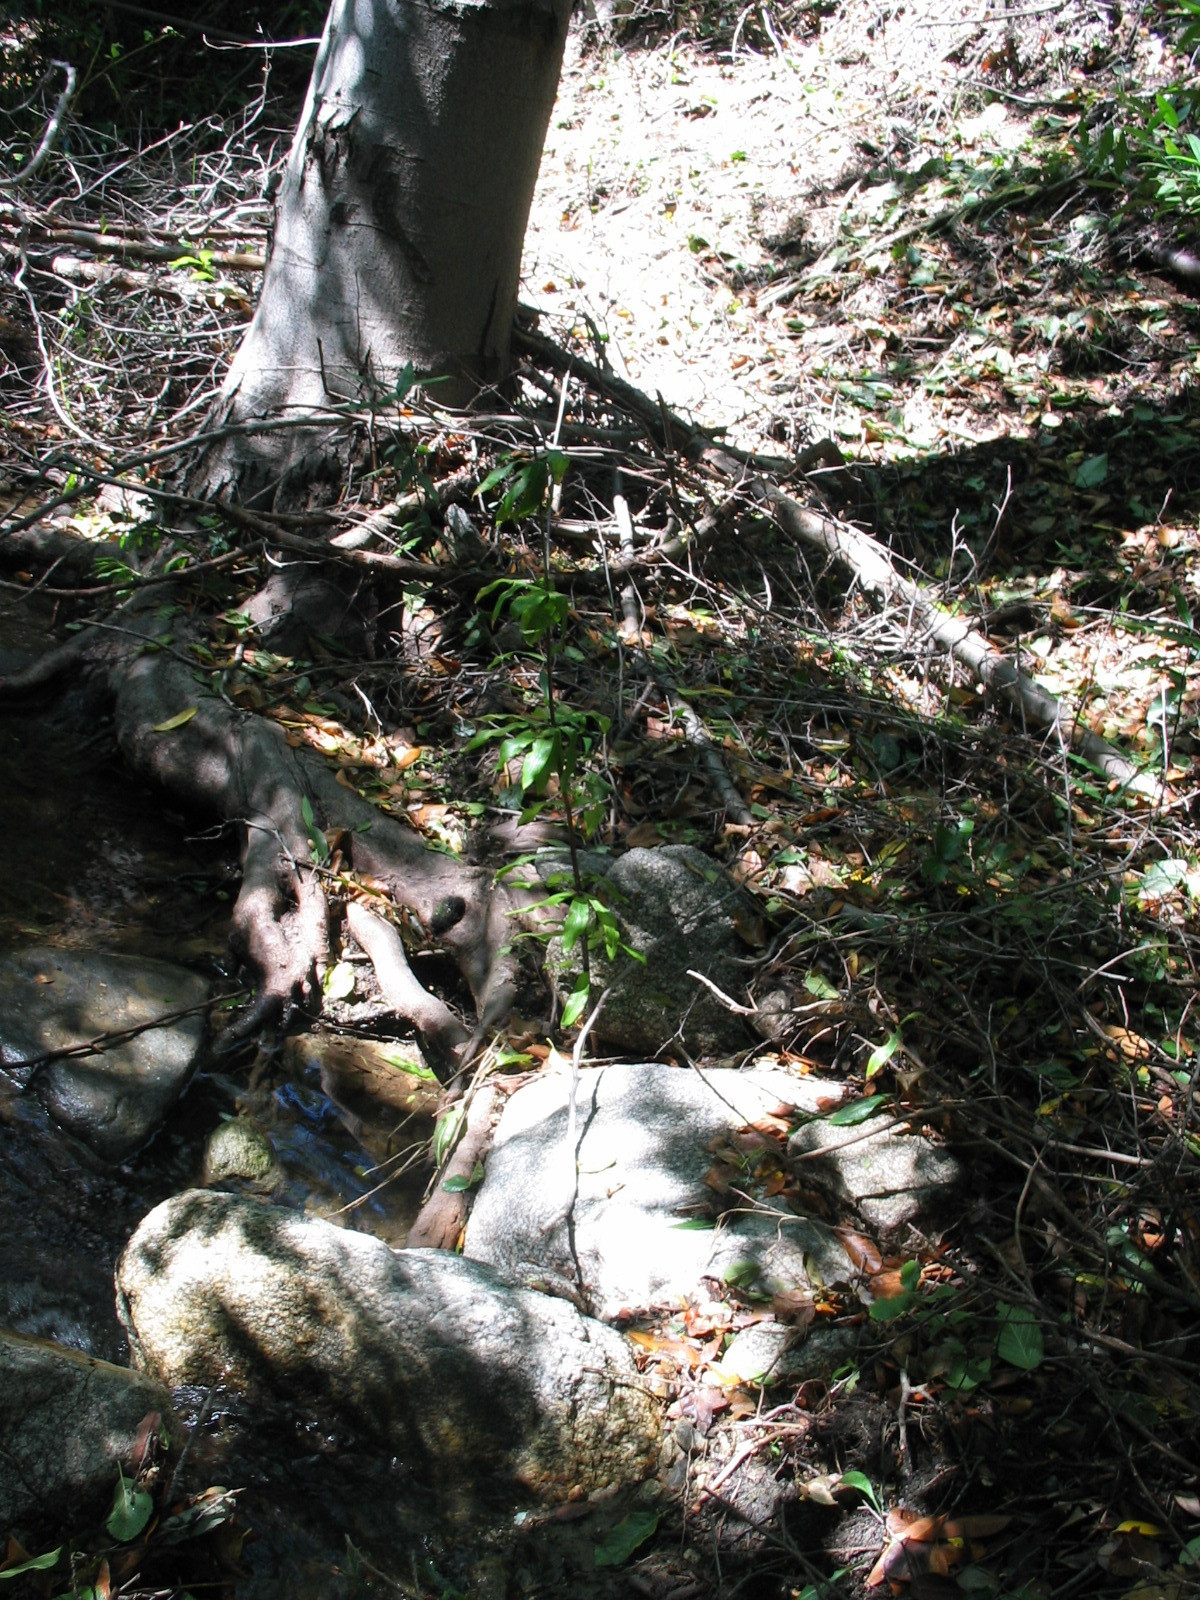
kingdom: Plantae
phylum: Tracheophyta
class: Liliopsida
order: Liliales
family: Liliaceae
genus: Lilium
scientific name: Lilium humboldtii
